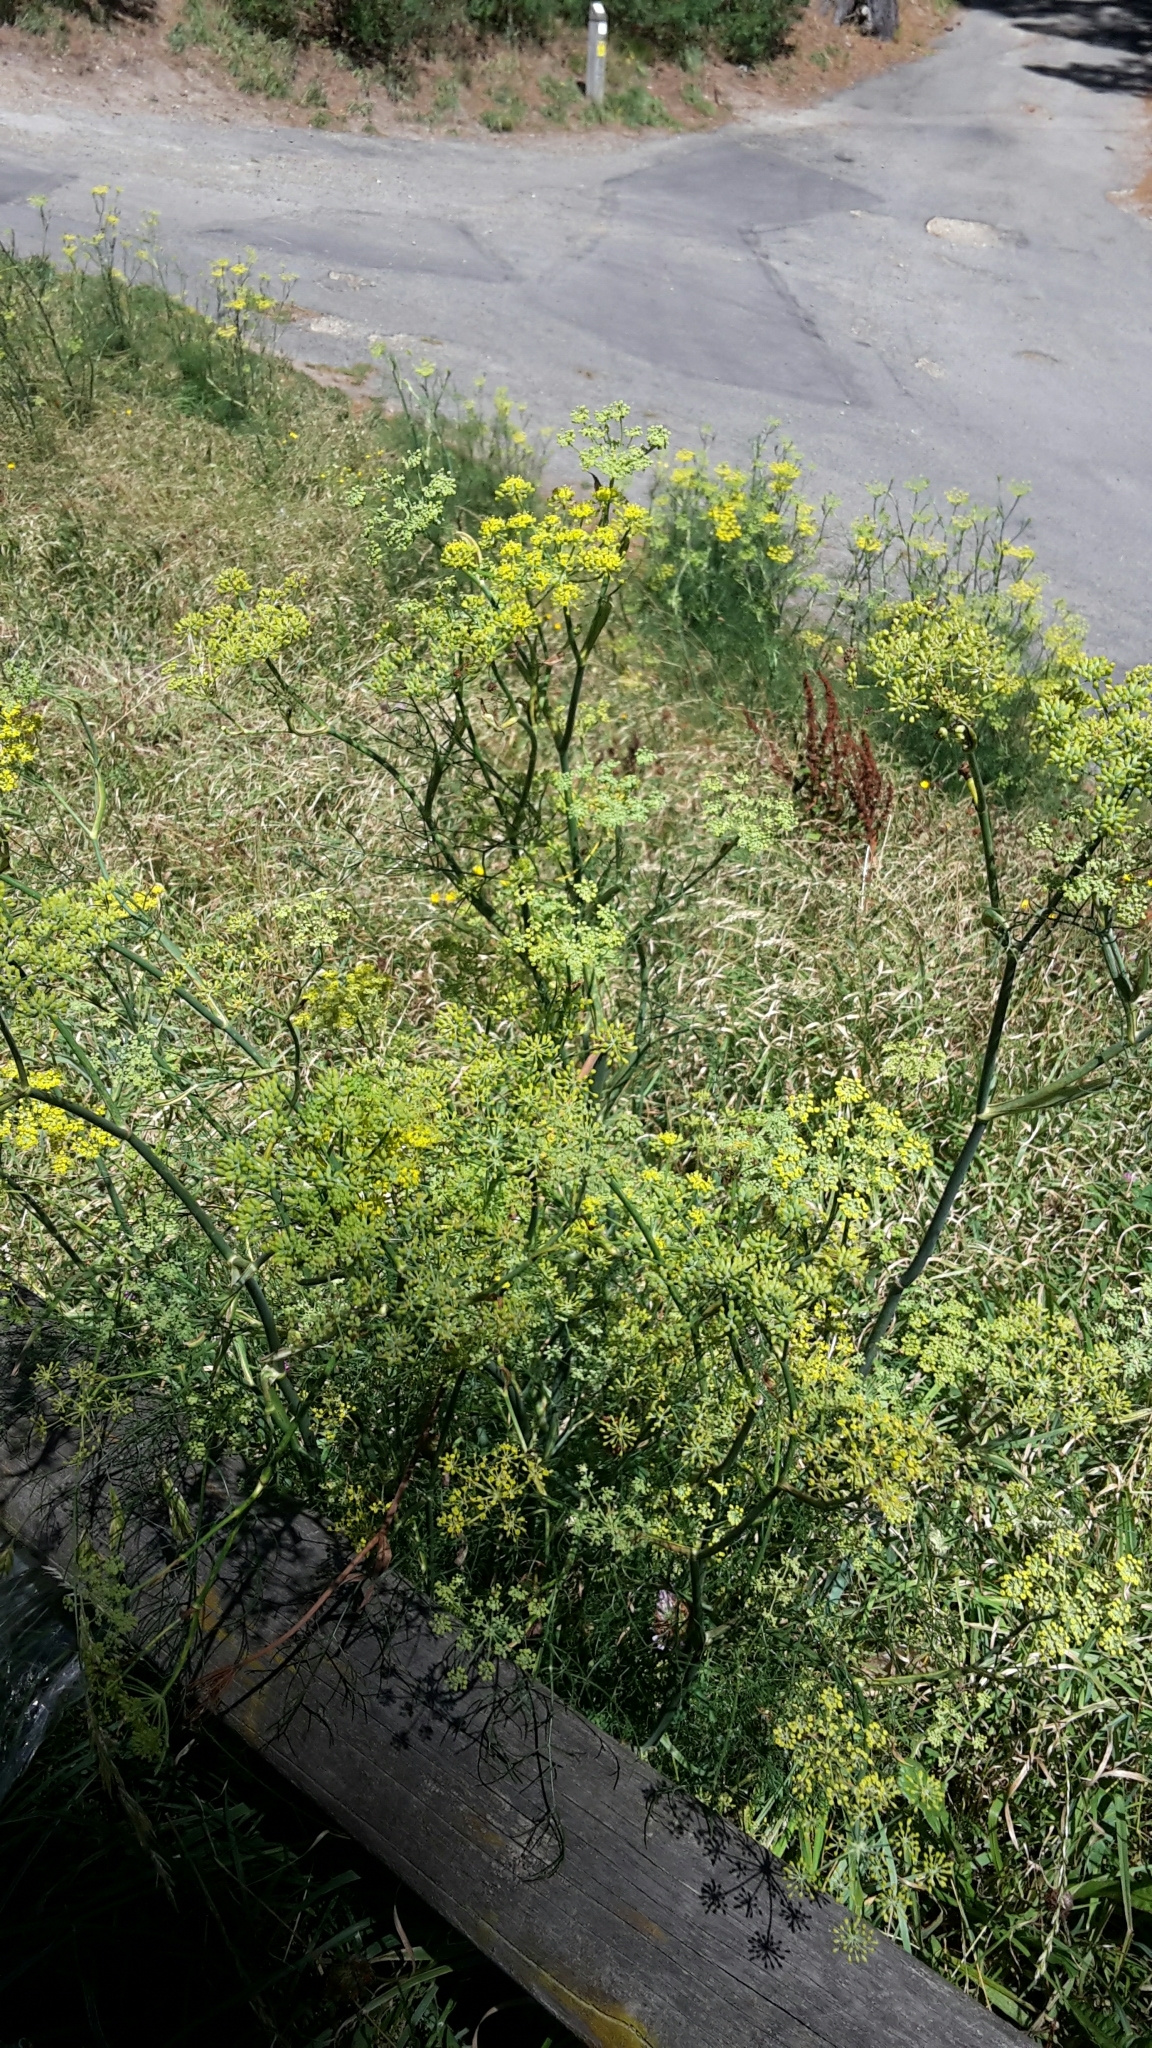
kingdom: Plantae
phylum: Tracheophyta
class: Magnoliopsida
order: Apiales
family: Apiaceae
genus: Foeniculum
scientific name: Foeniculum vulgare
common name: Fennel
